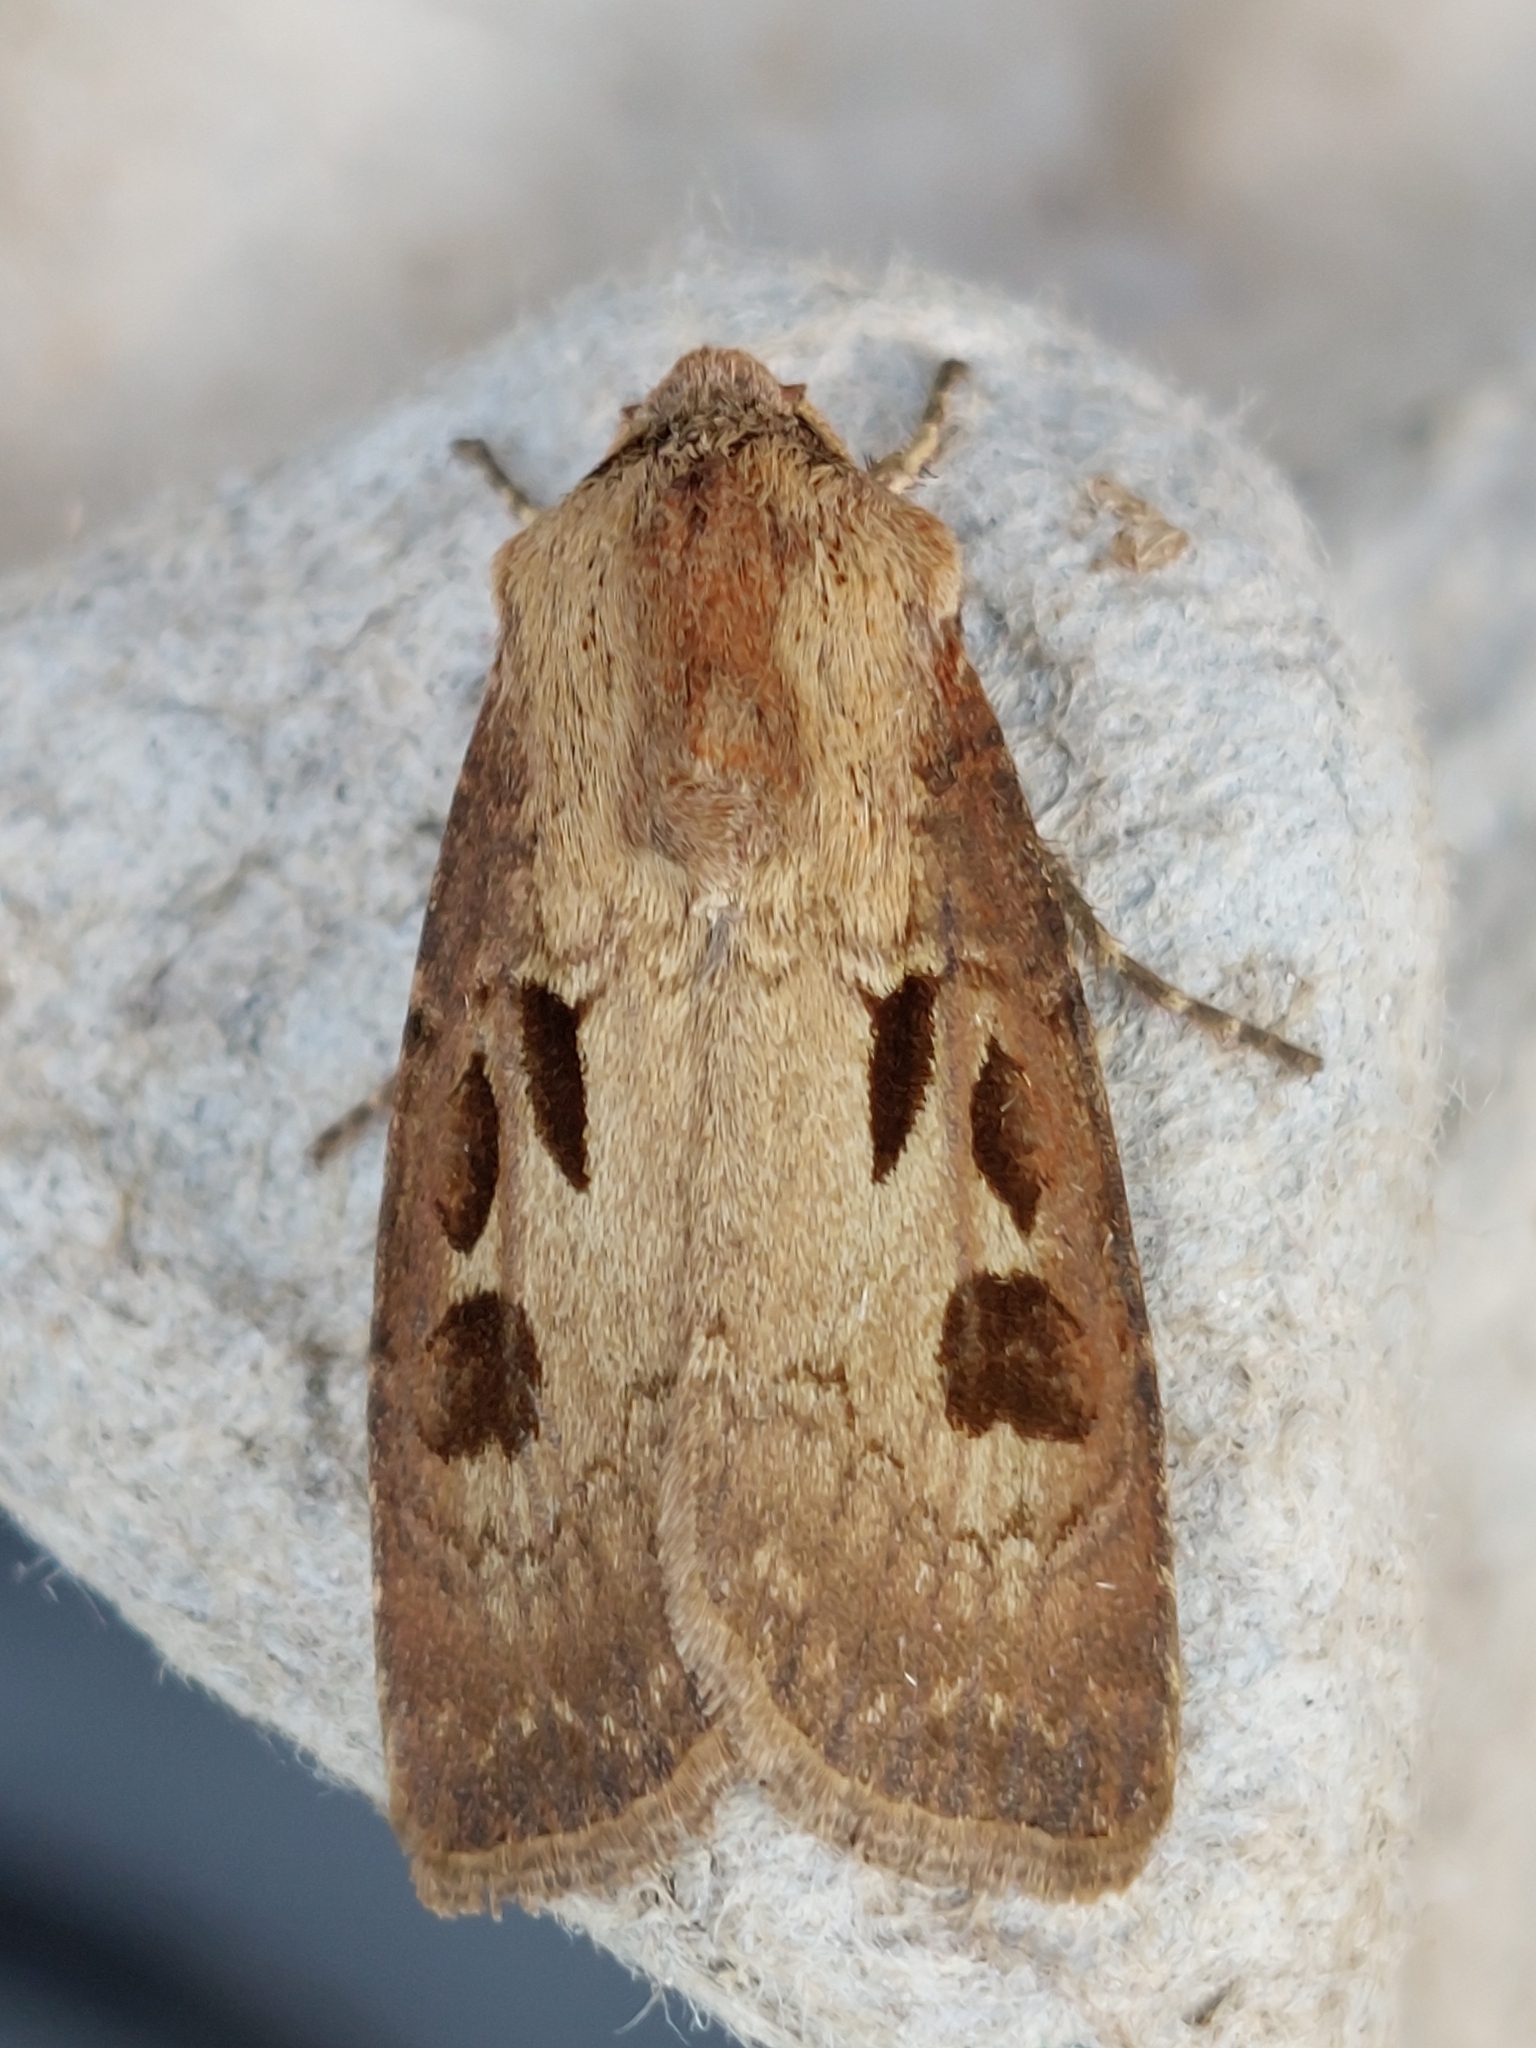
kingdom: Animalia
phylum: Arthropoda
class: Insecta
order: Lepidoptera
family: Noctuidae
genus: Agrotis
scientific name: Agrotis exclamationis
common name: Heart and dart
